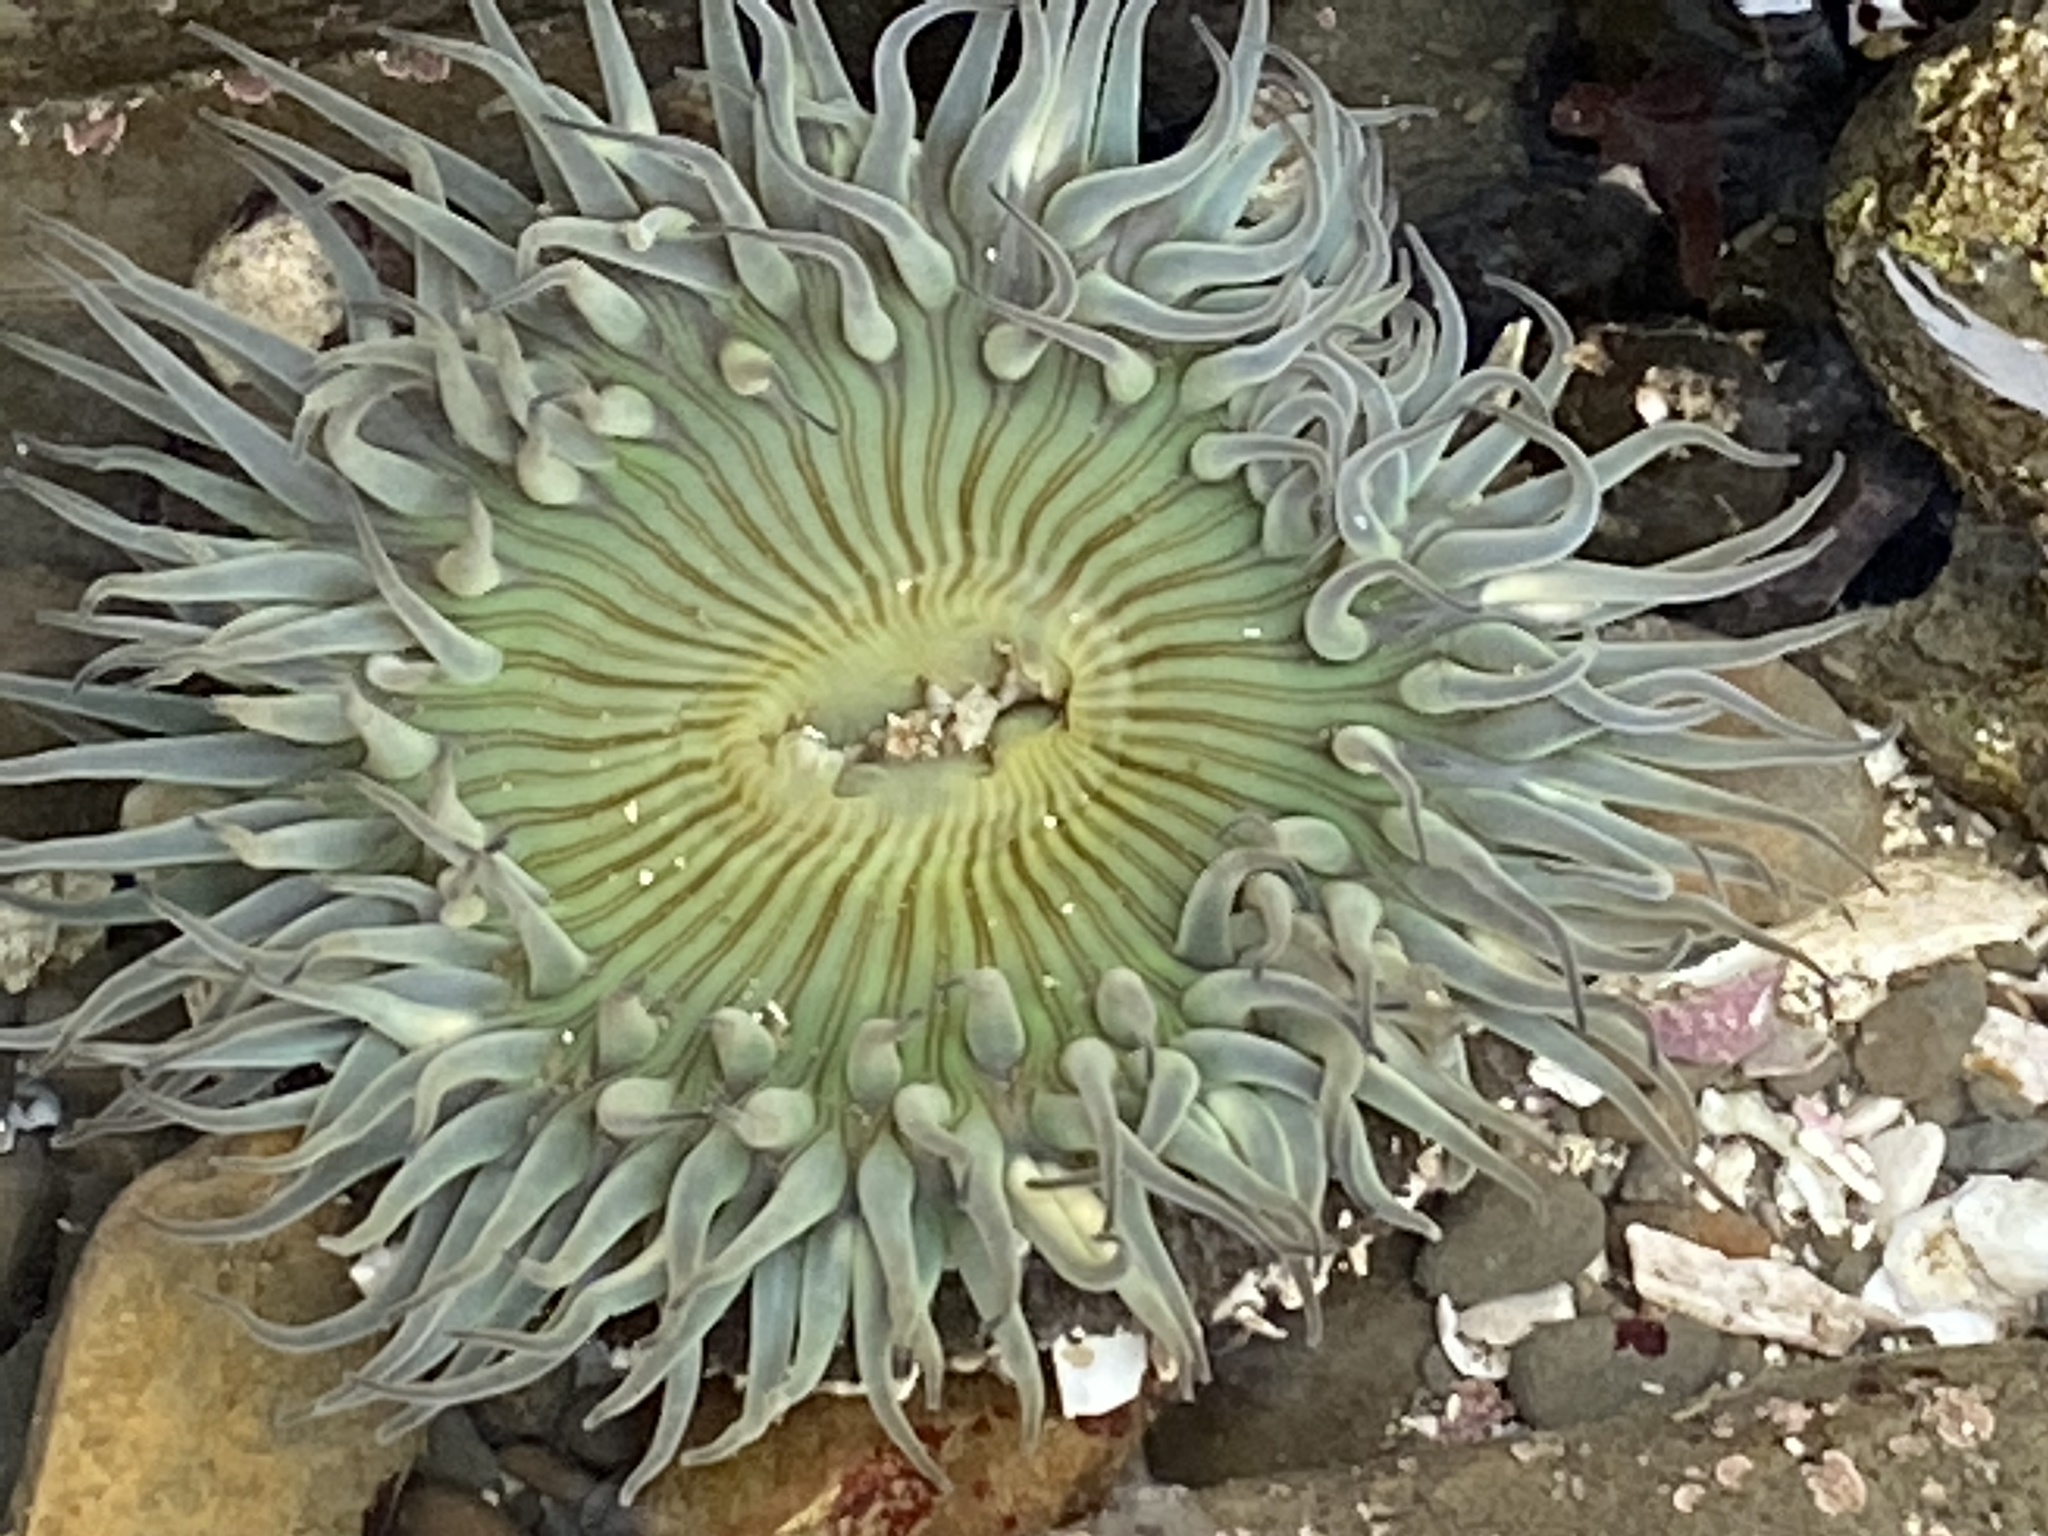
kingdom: Animalia
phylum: Cnidaria
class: Anthozoa
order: Actiniaria
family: Actiniidae
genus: Anthopleura
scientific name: Anthopleura sola
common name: Sun anemone
